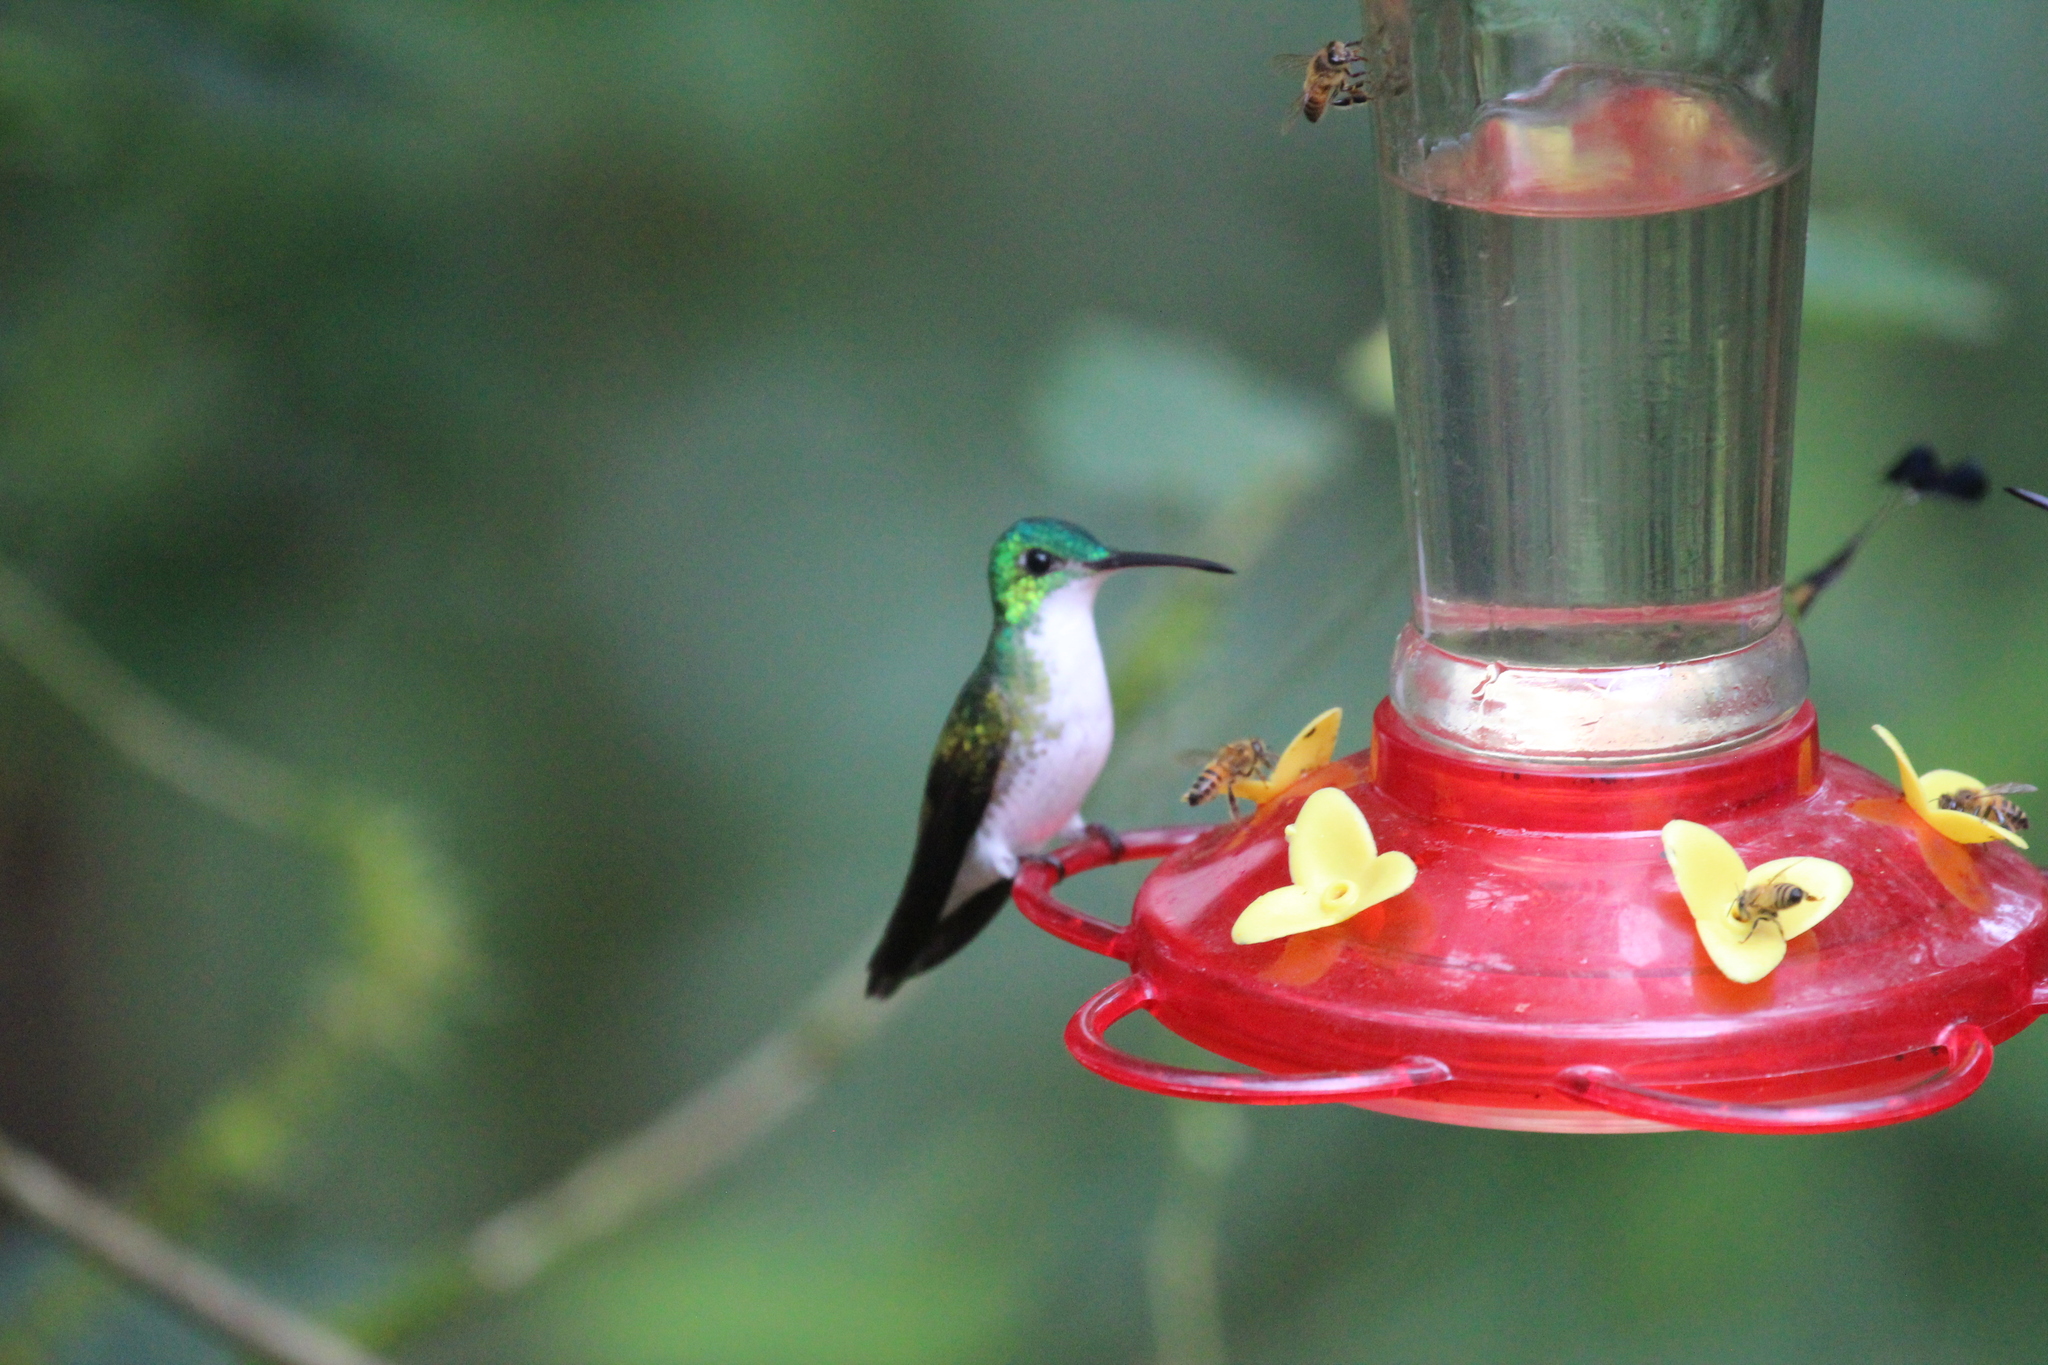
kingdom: Animalia
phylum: Chordata
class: Aves
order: Apodiformes
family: Trochilidae
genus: Uranomitra
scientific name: Uranomitra franciae
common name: Andean emerald
